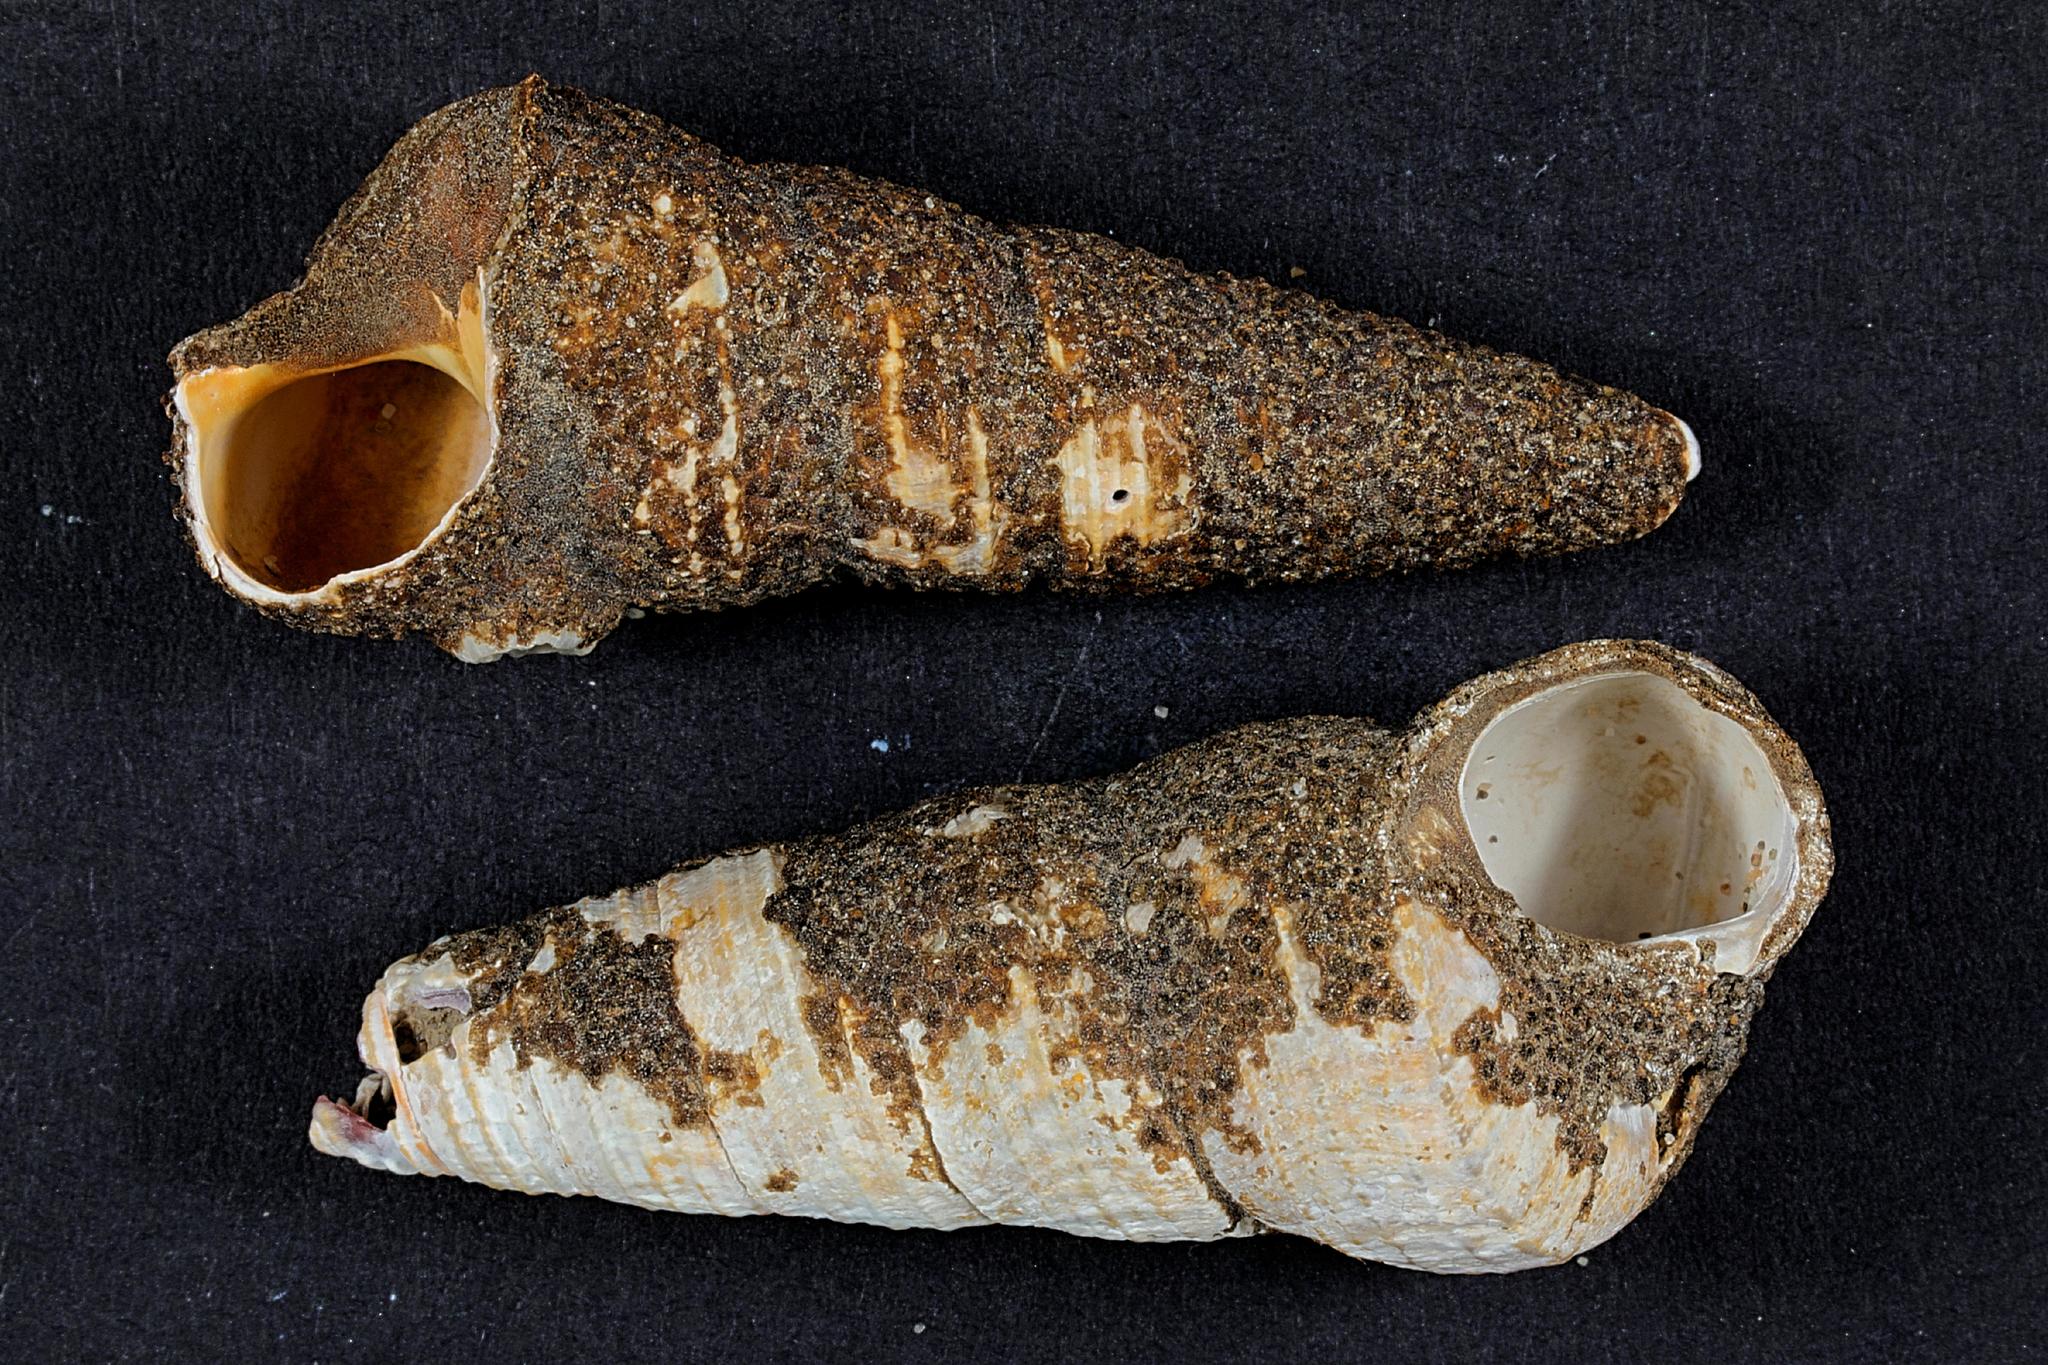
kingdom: Animalia
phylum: Cnidaria
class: Hydrozoa
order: Anthoathecata
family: Hydractiniidae
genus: Hydractinia
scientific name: Hydractinia echinata
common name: Rough hydroid
